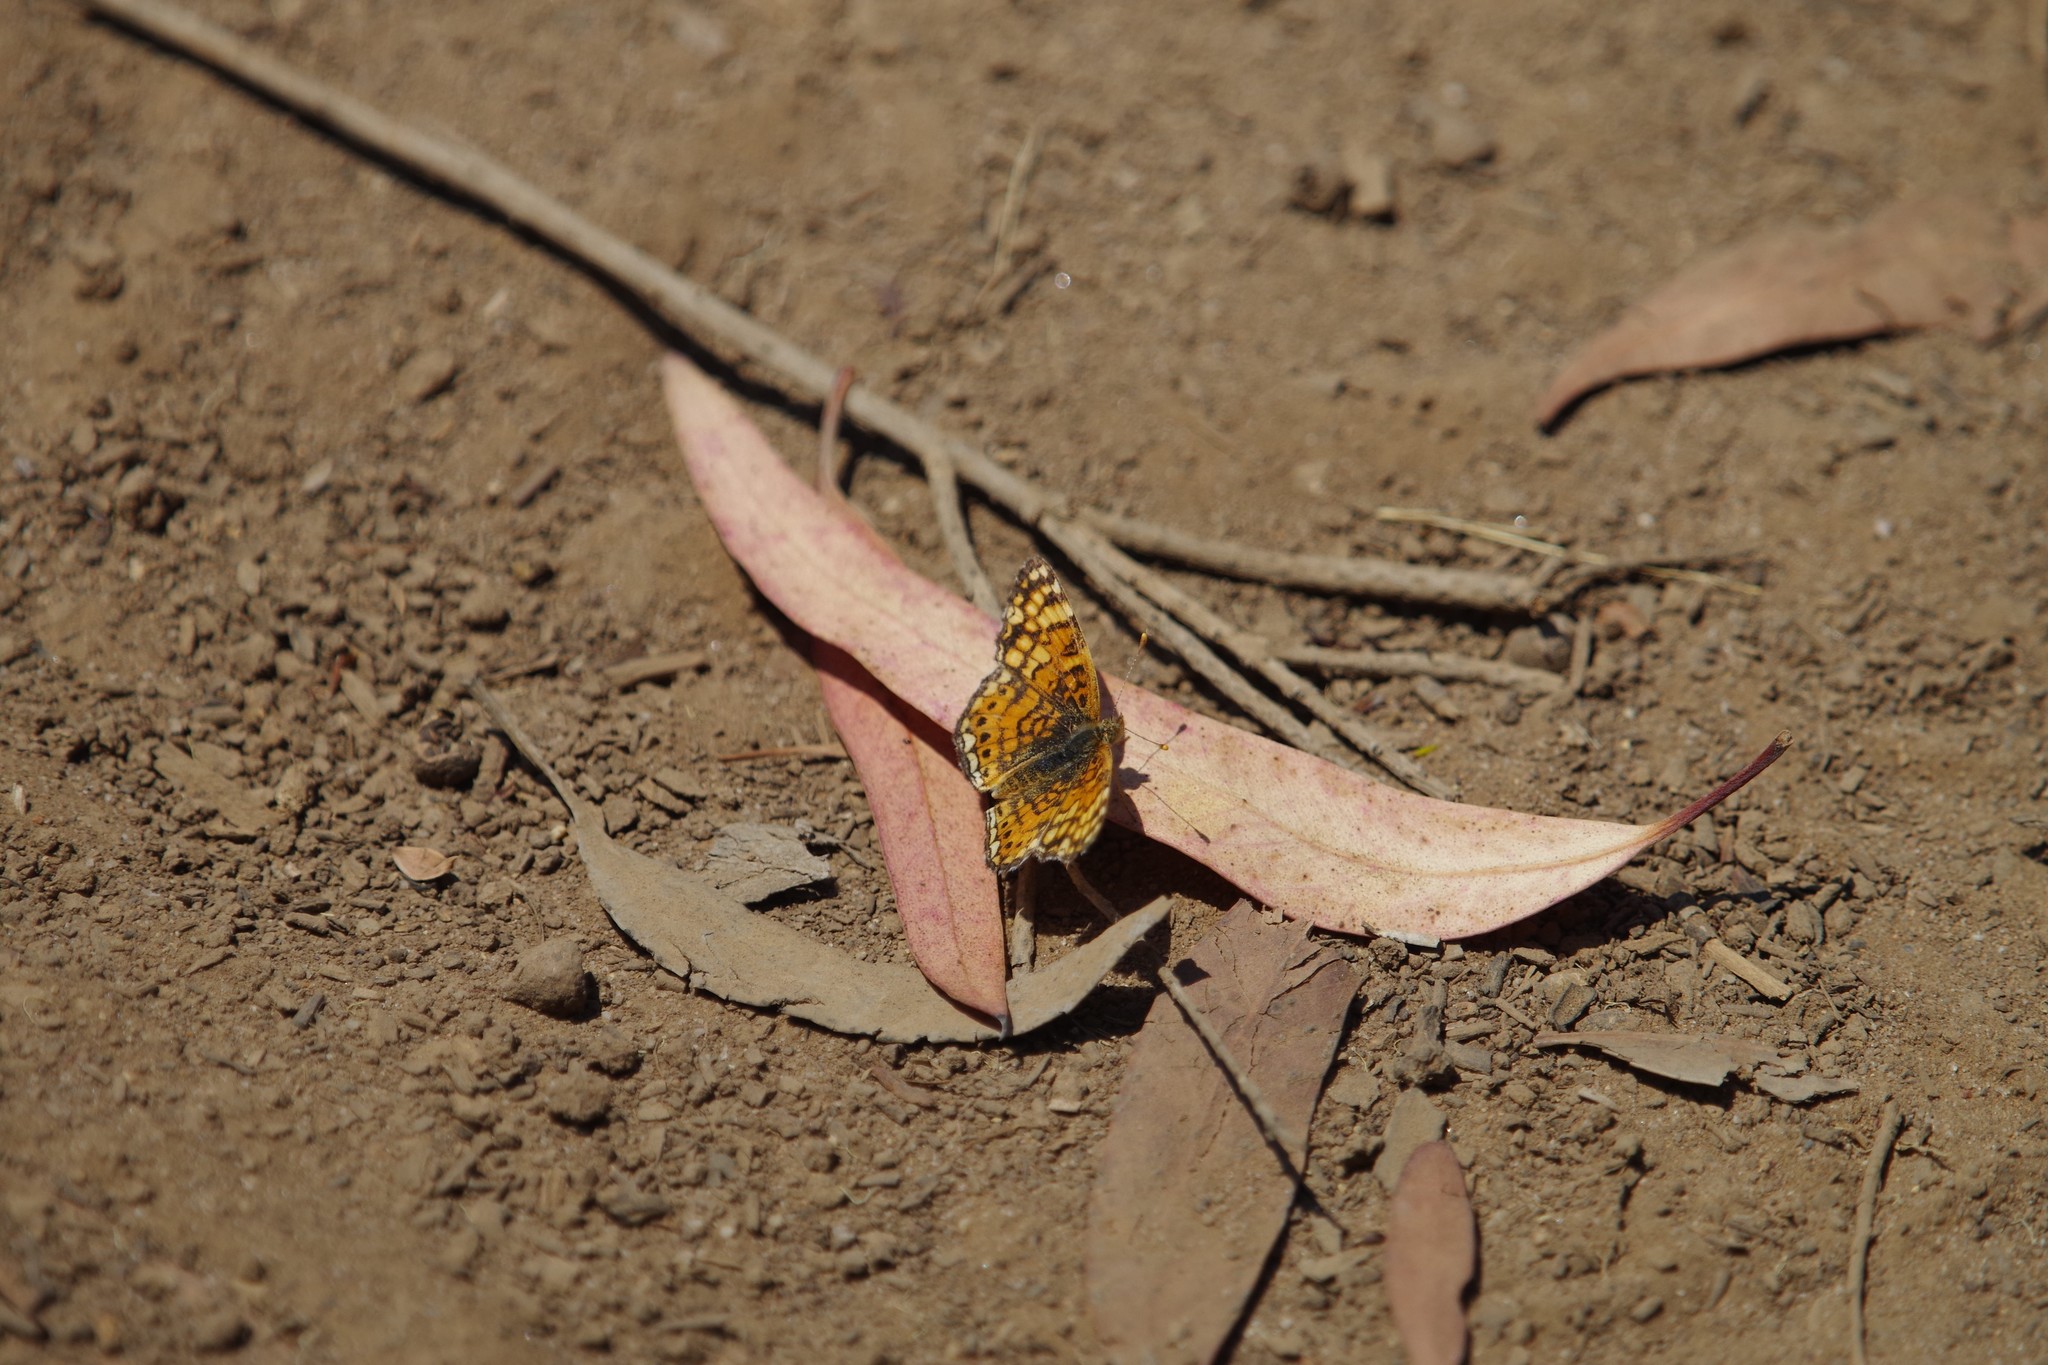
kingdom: Animalia
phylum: Arthropoda
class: Insecta
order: Lepidoptera
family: Nymphalidae
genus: Eresia
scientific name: Eresia aveyrona
